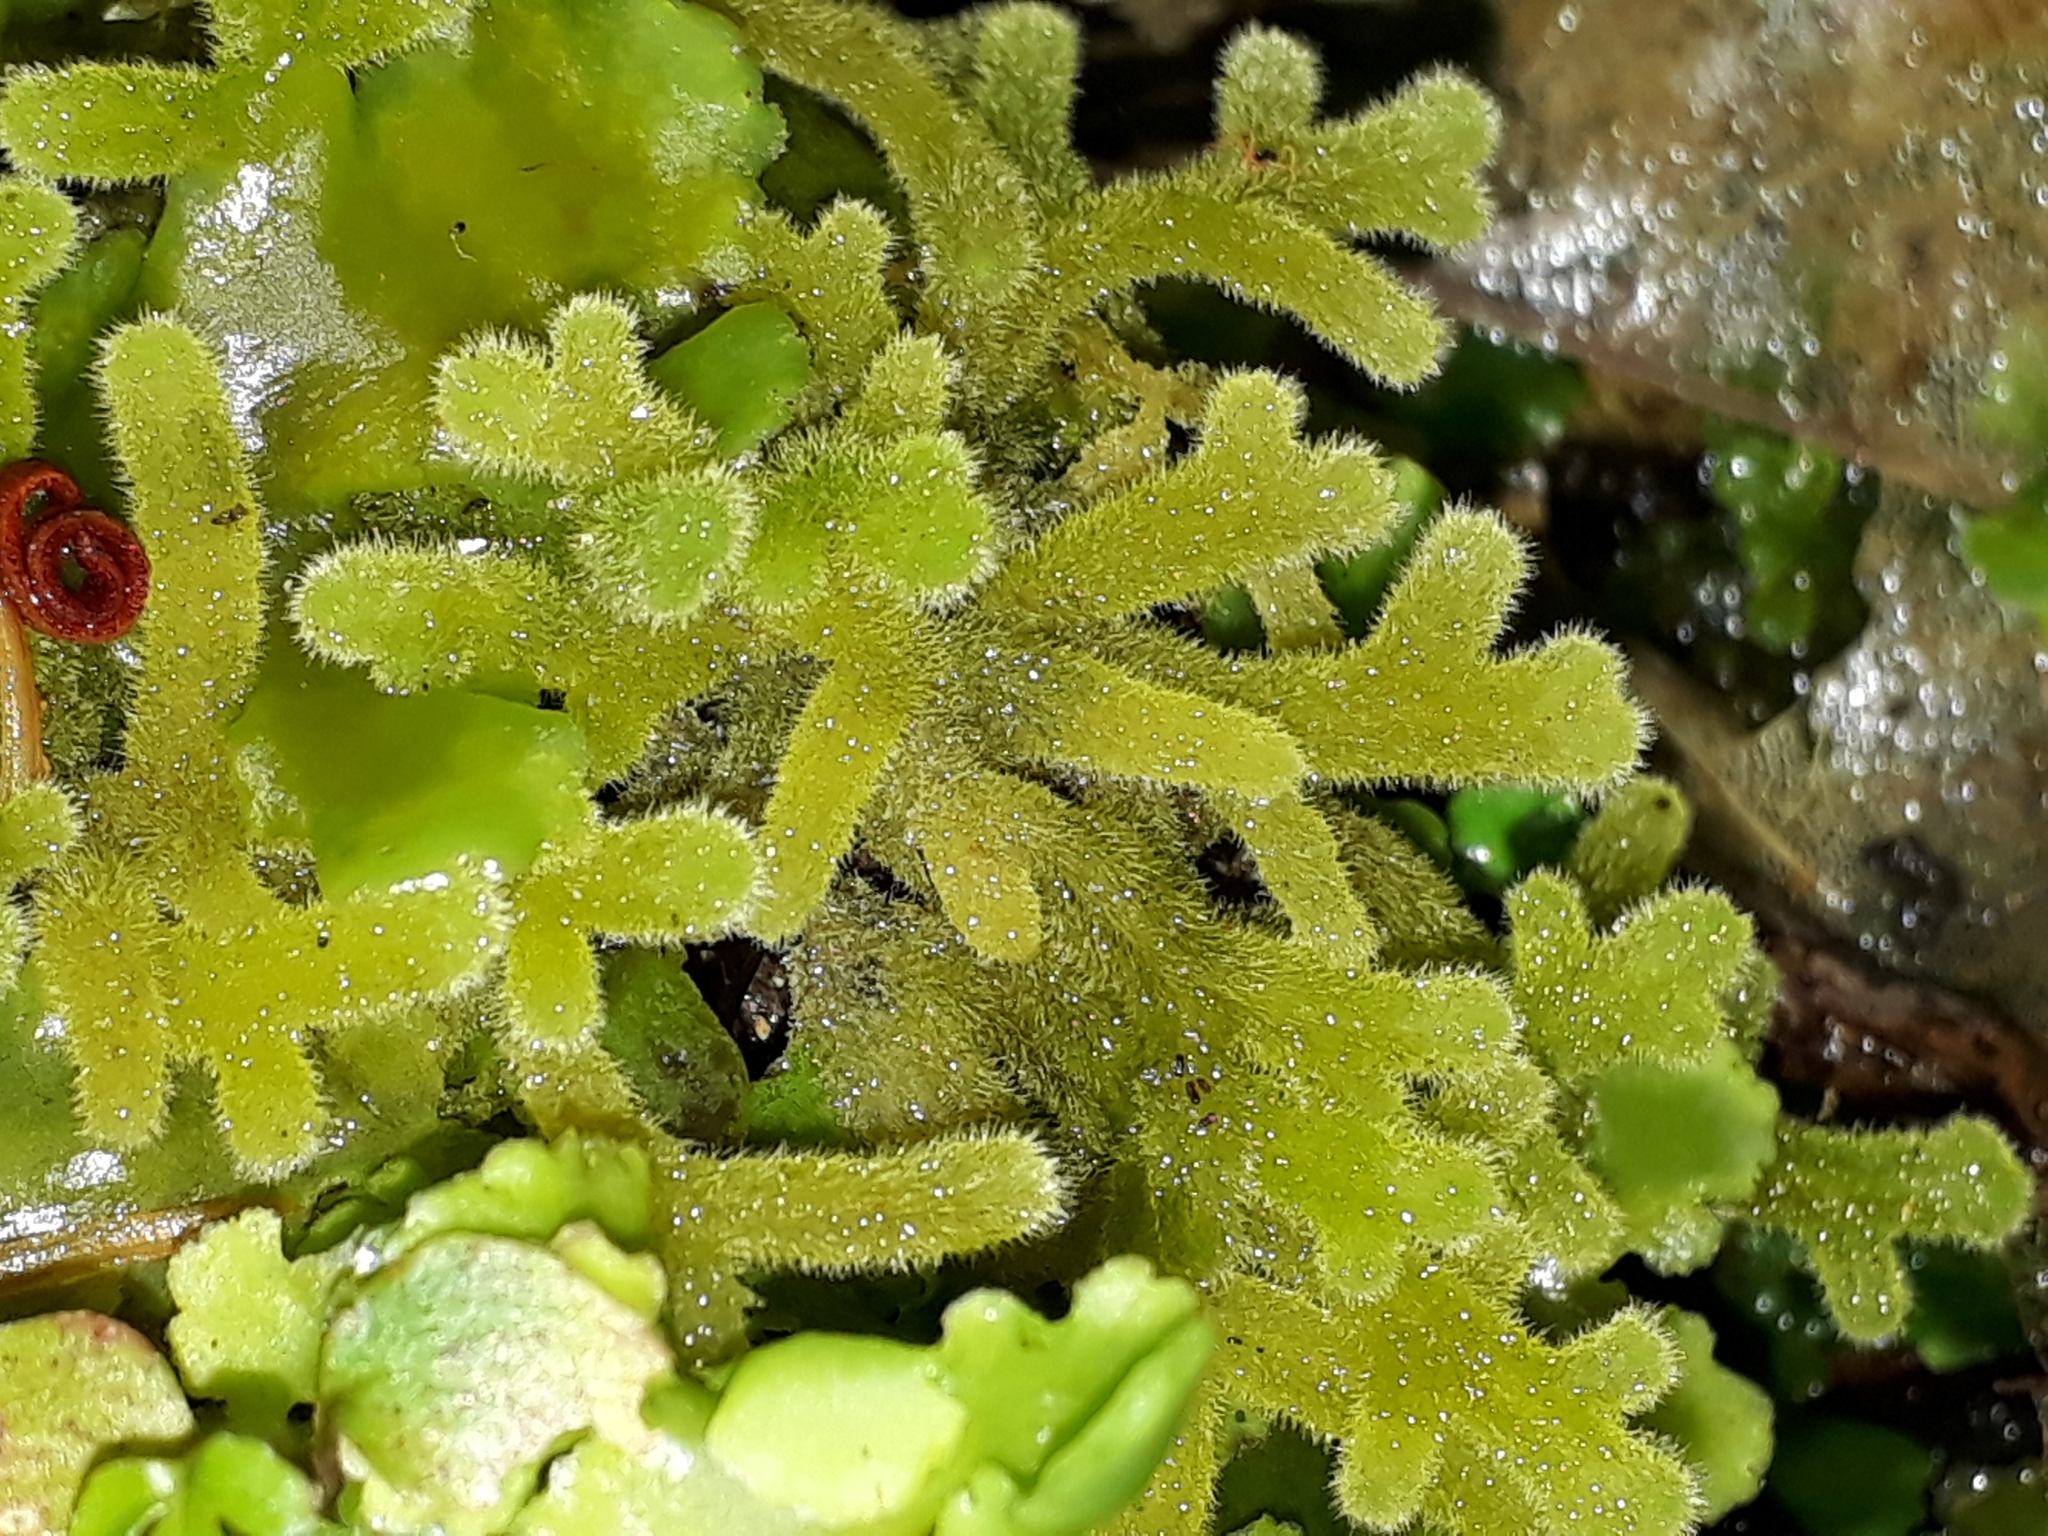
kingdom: Plantae
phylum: Marchantiophyta
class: Jungermanniopsida
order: Jungermanniales
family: Trichocoleaceae
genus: Leiomitra
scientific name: Leiomitra lanata
